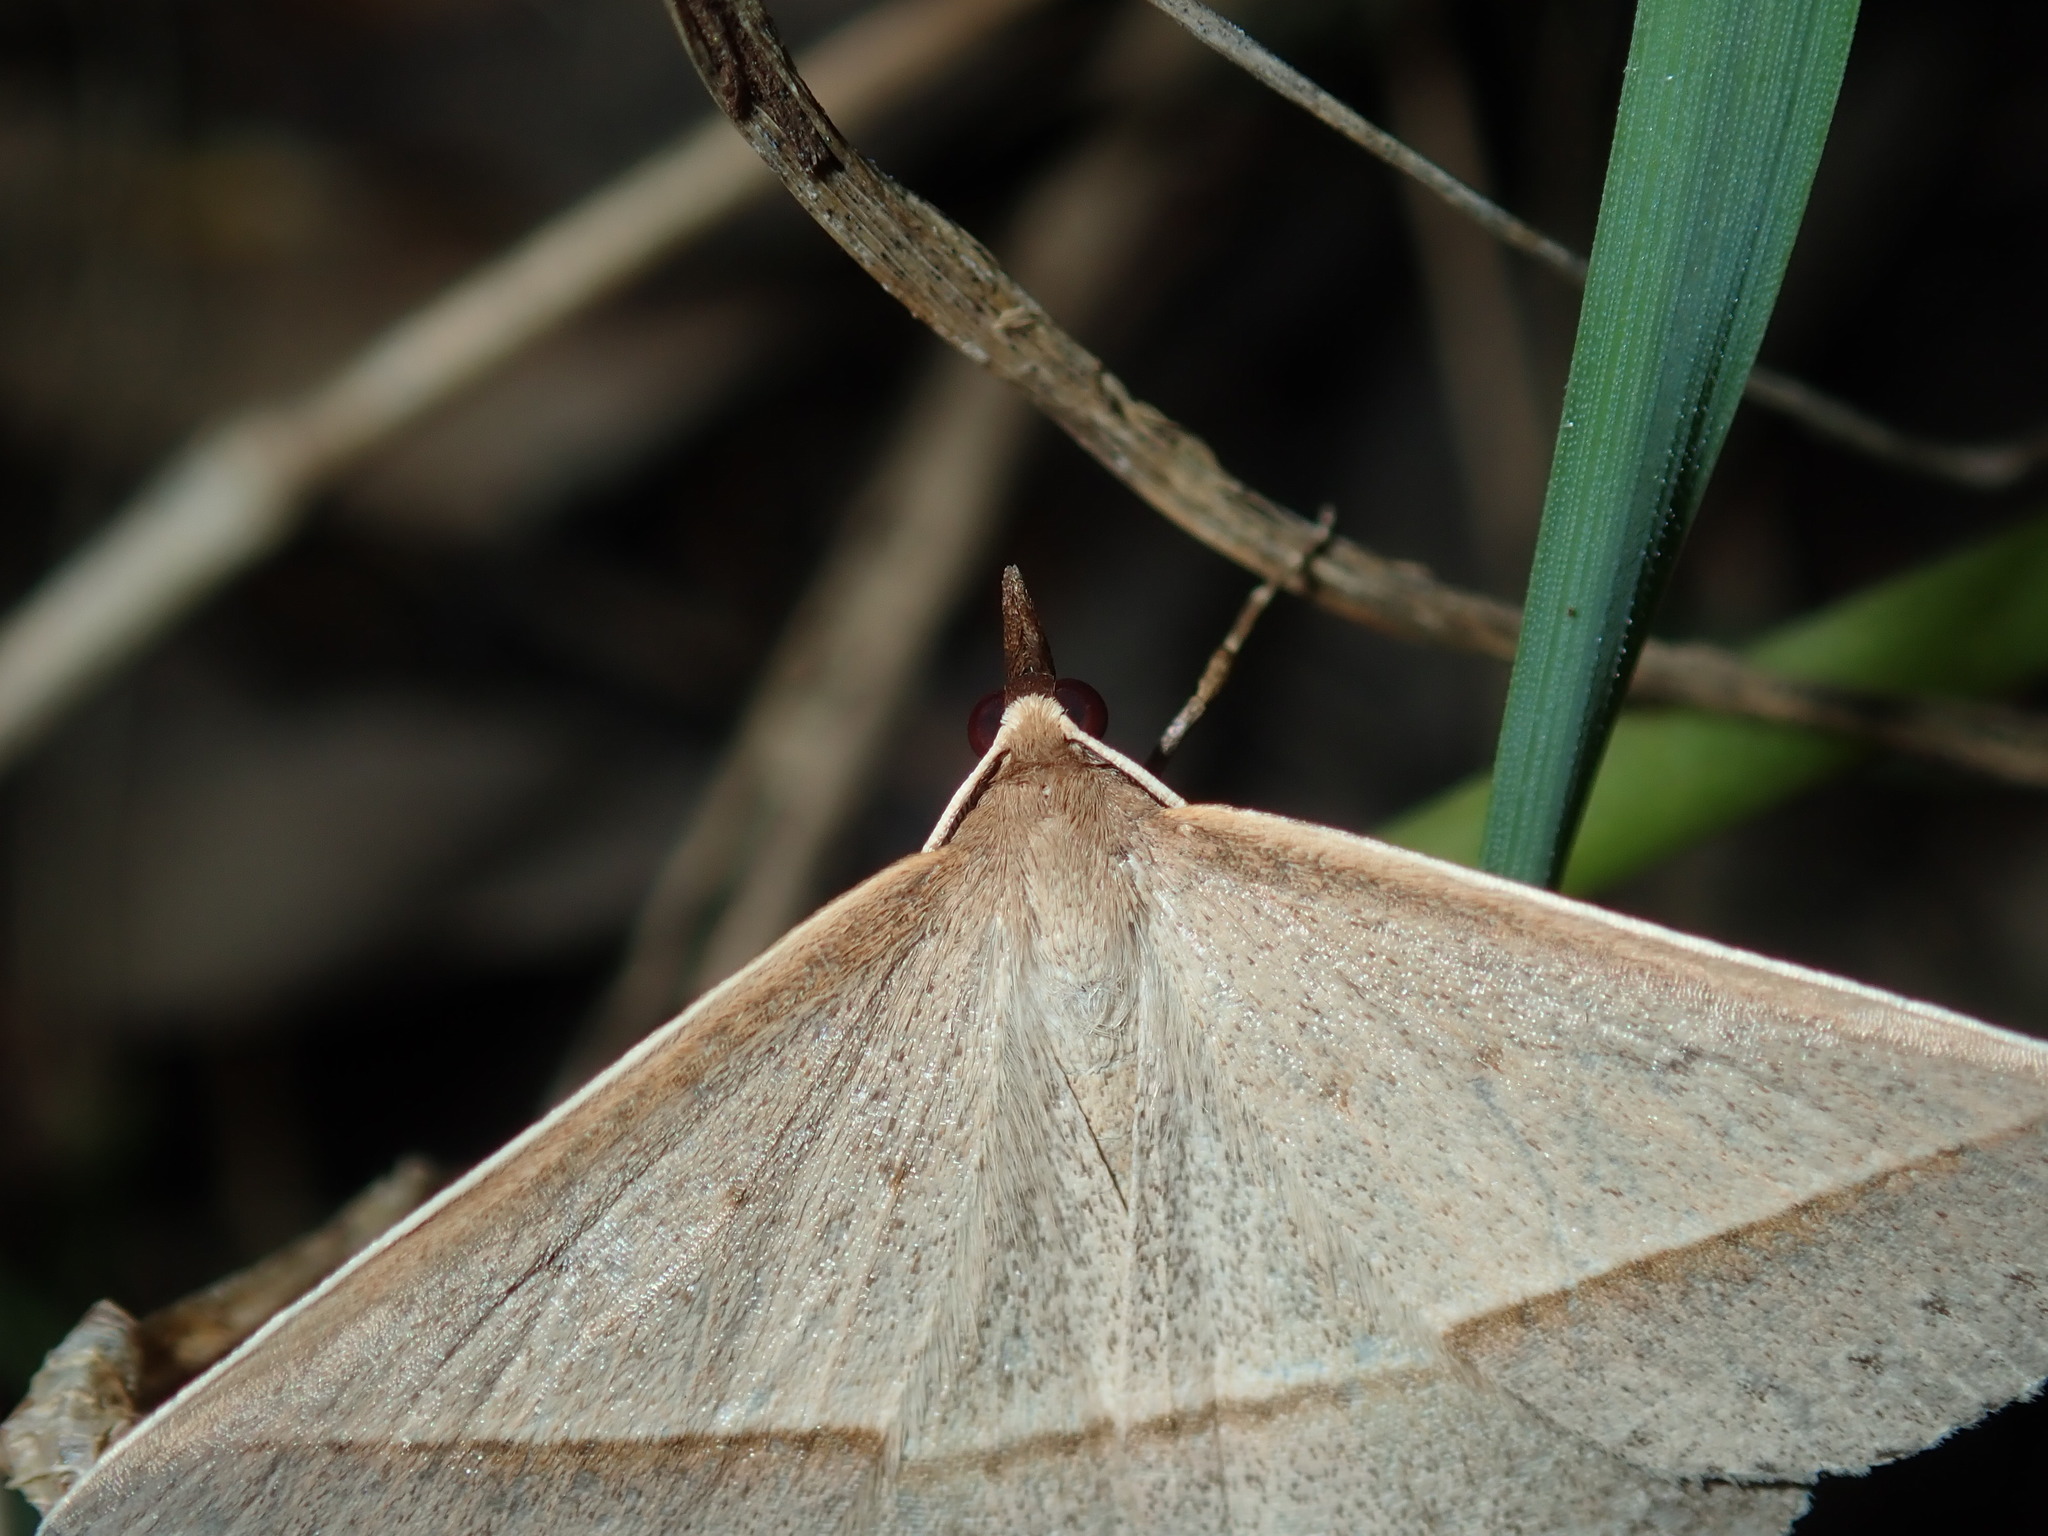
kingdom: Animalia
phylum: Arthropoda
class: Insecta
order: Lepidoptera
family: Geometridae
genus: Epidesmia
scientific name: Epidesmia tryxaria
